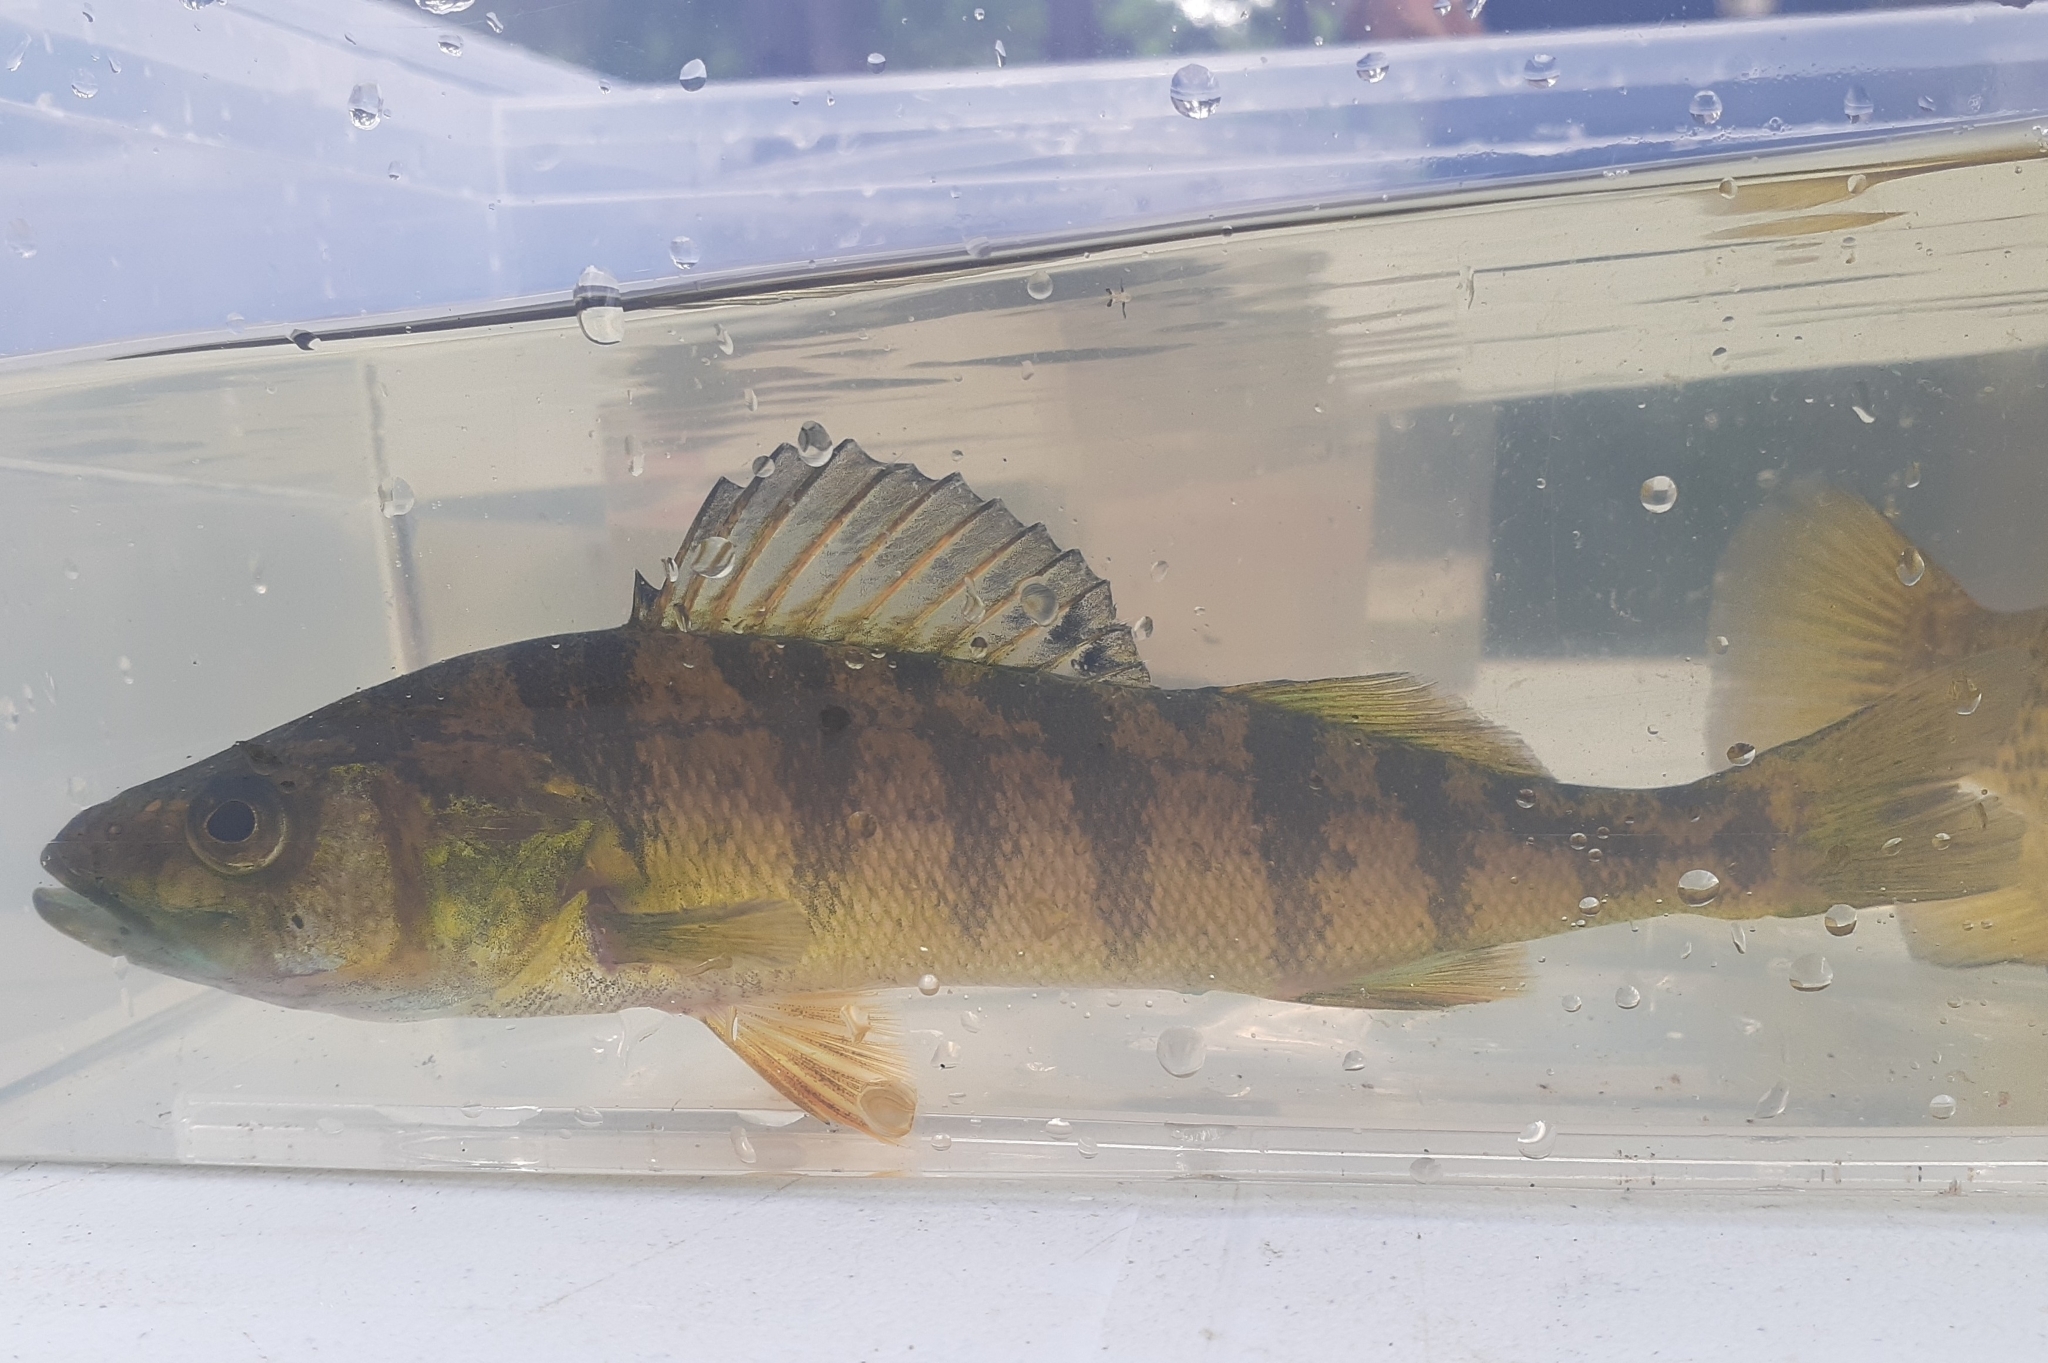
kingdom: Animalia
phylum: Chordata
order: Perciformes
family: Percidae
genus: Perca
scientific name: Perca flavescens
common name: Yellow perch
